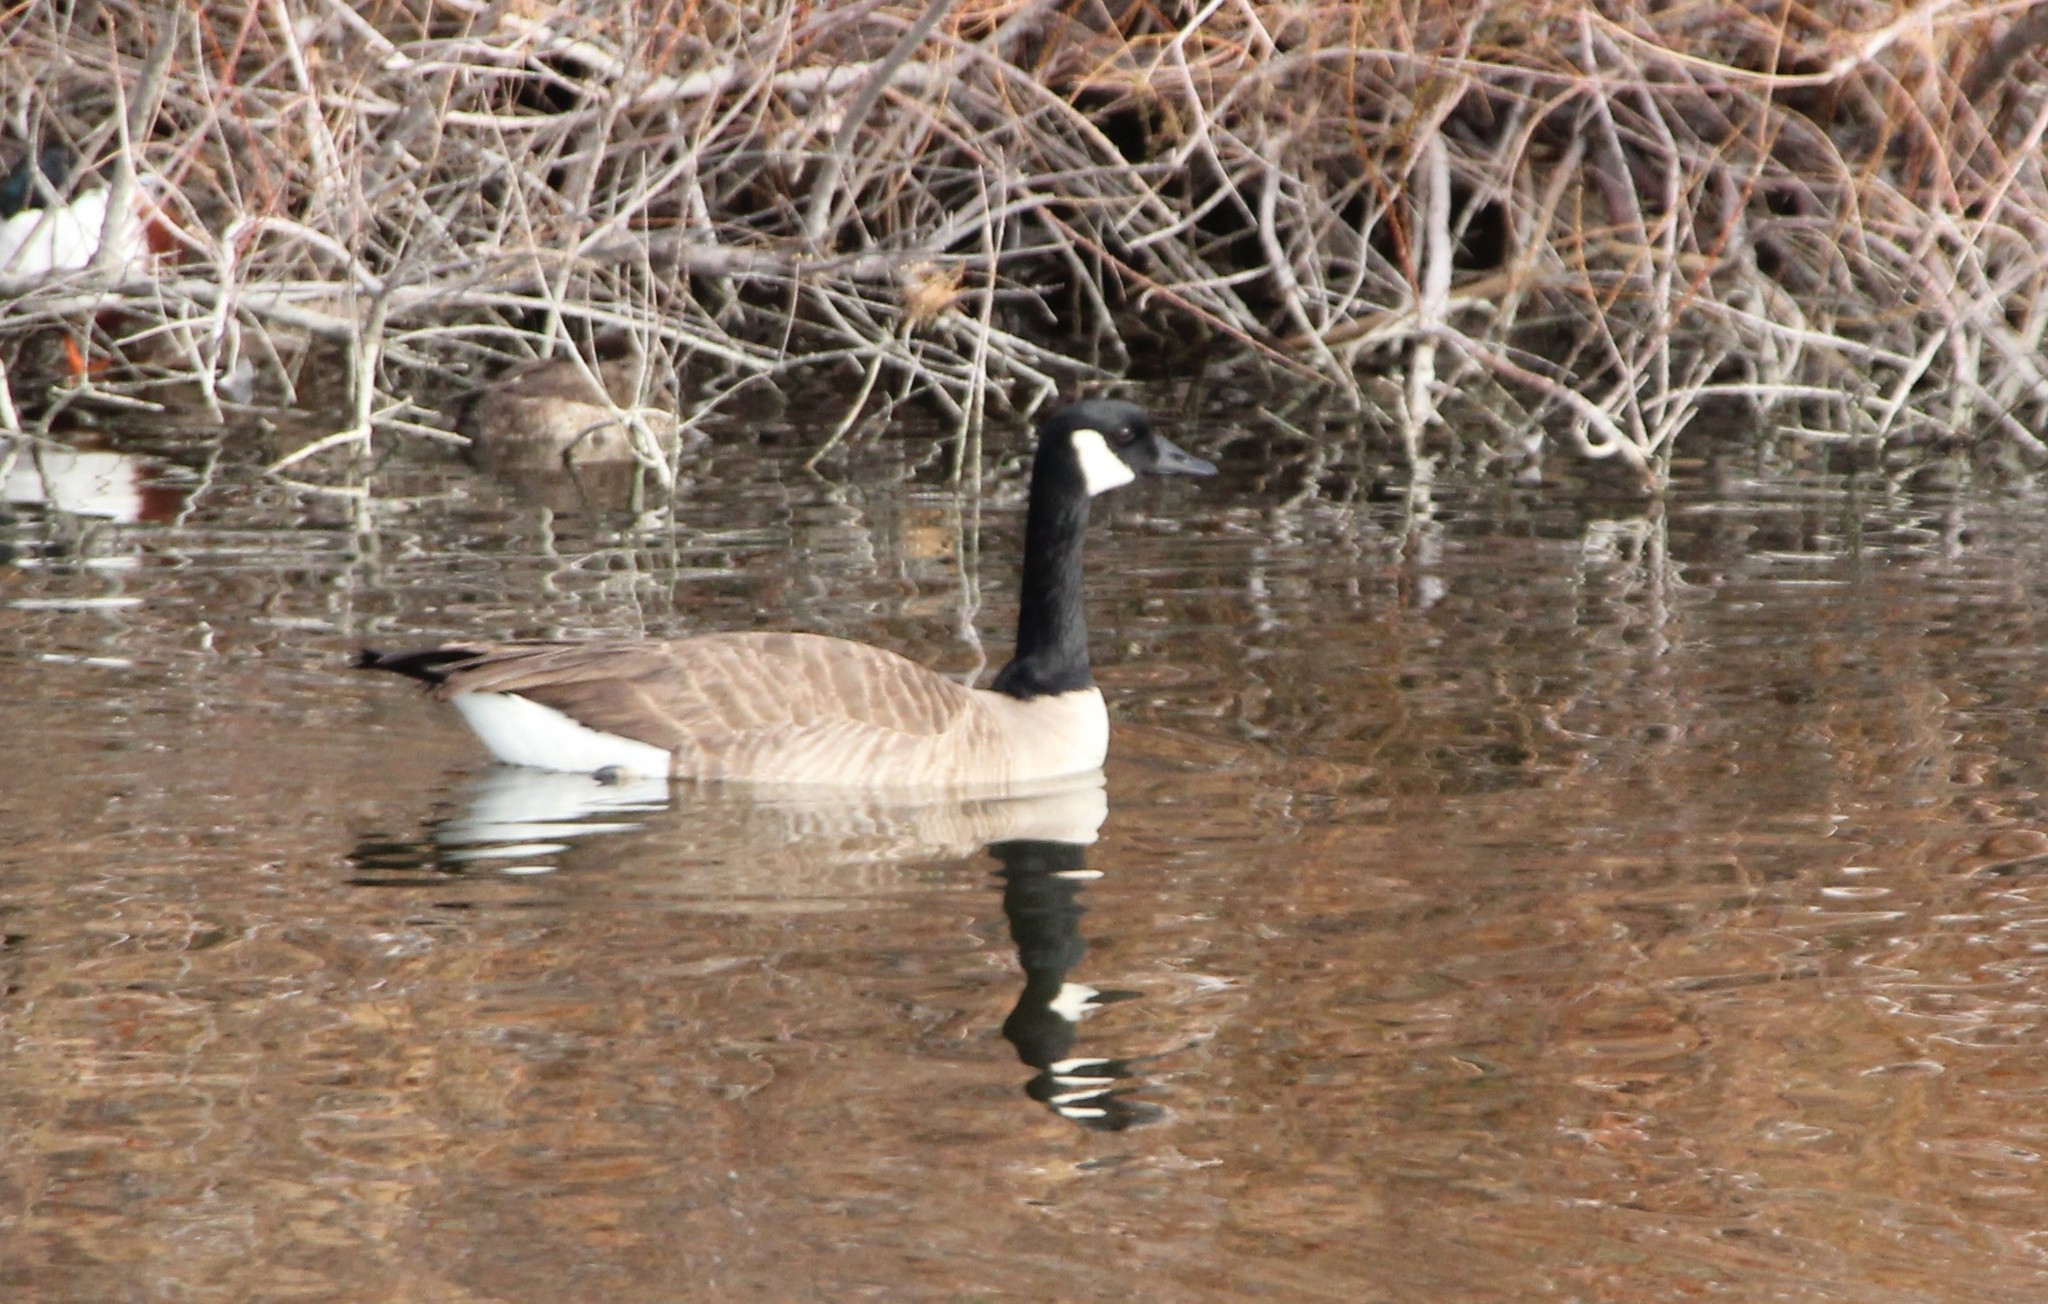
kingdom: Animalia
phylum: Chordata
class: Aves
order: Anseriformes
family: Anatidae
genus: Branta
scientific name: Branta canadensis
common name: Canada goose
